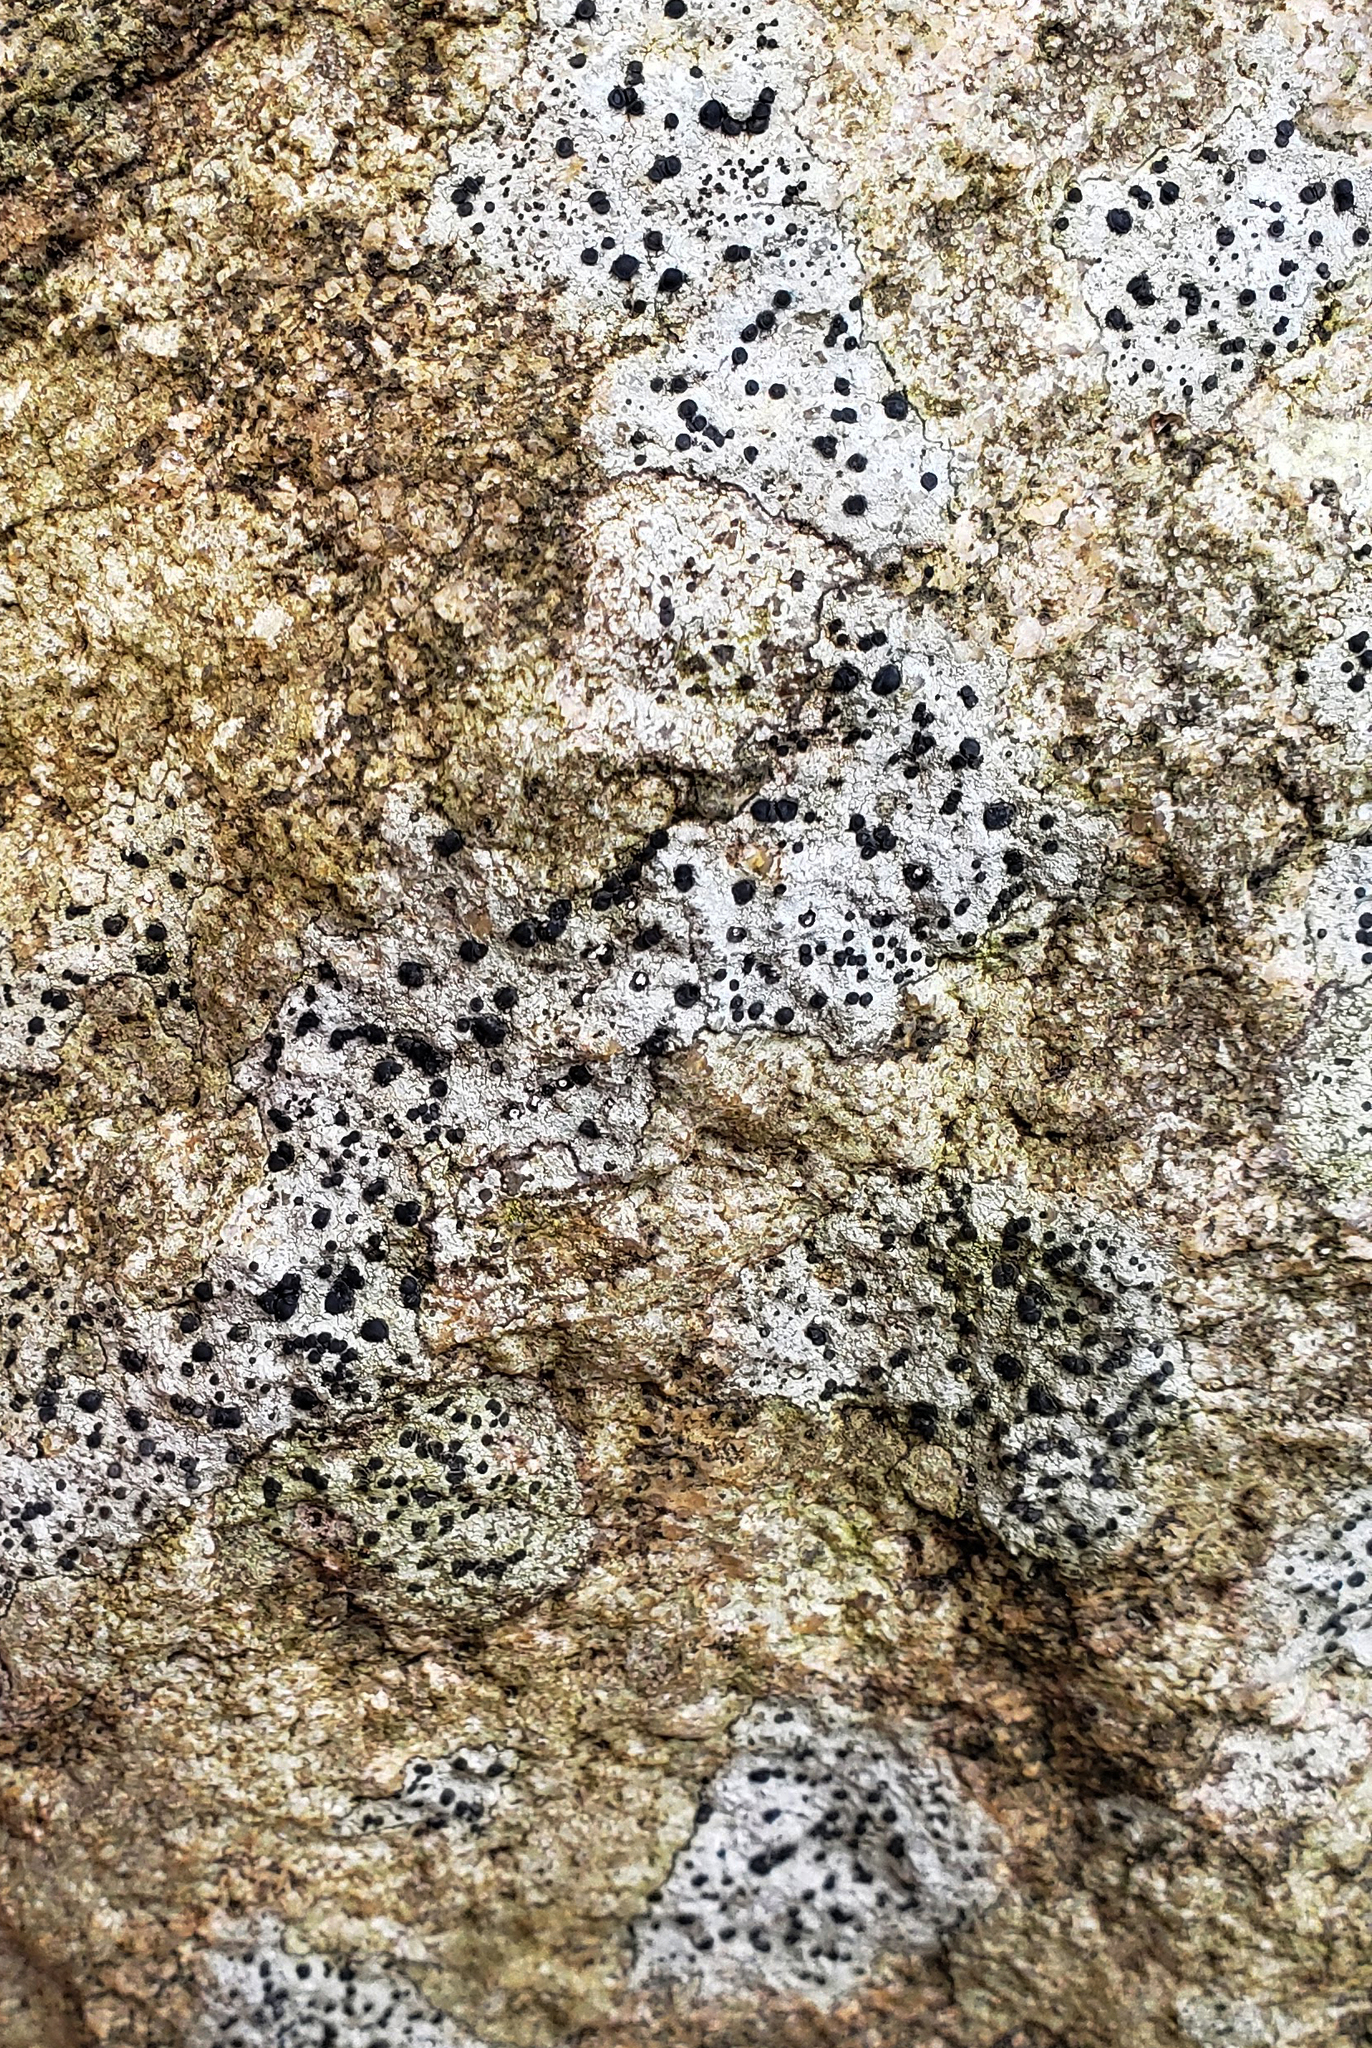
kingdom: Fungi
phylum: Ascomycota
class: Lecanoromycetes
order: Lecideales
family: Lecideaceae
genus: Porpidia
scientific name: Porpidia macrocarpa
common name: Common boulder lichen
